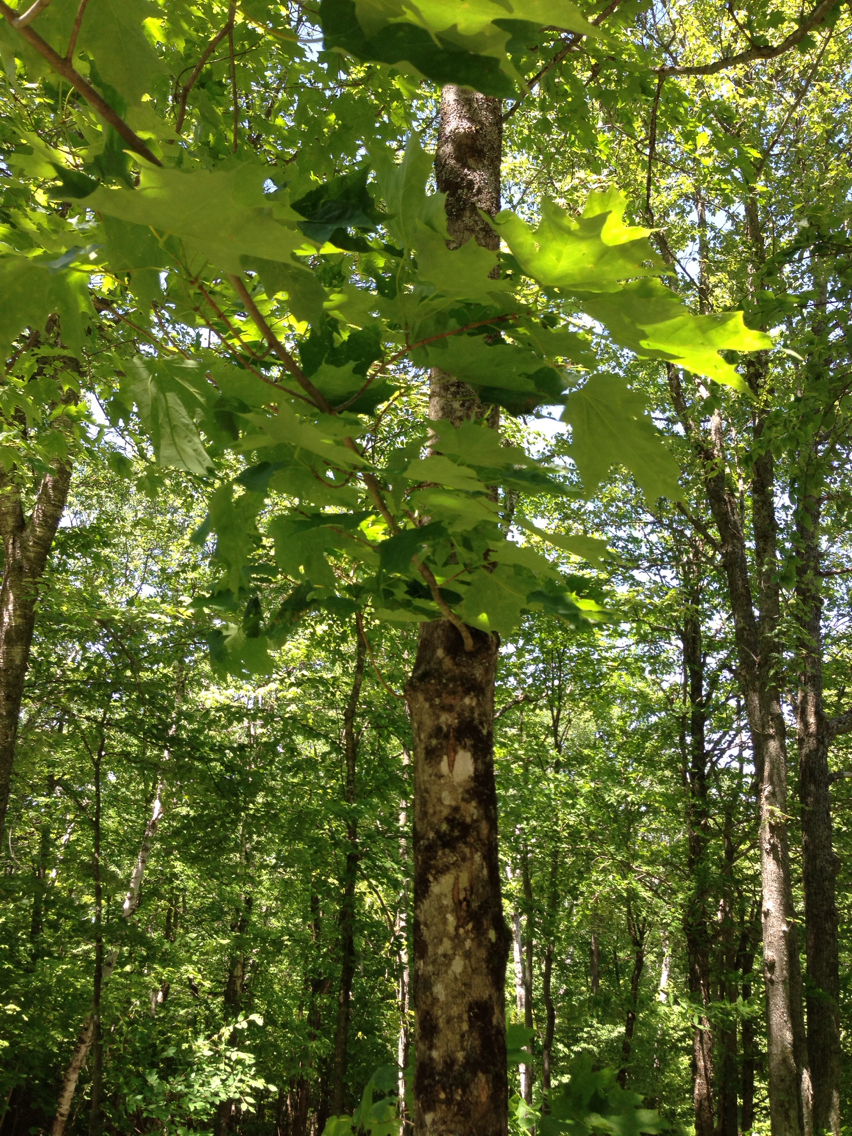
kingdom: Plantae
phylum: Tracheophyta
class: Magnoliopsida
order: Sapindales
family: Sapindaceae
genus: Acer
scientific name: Acer saccharum
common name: Sugar maple
